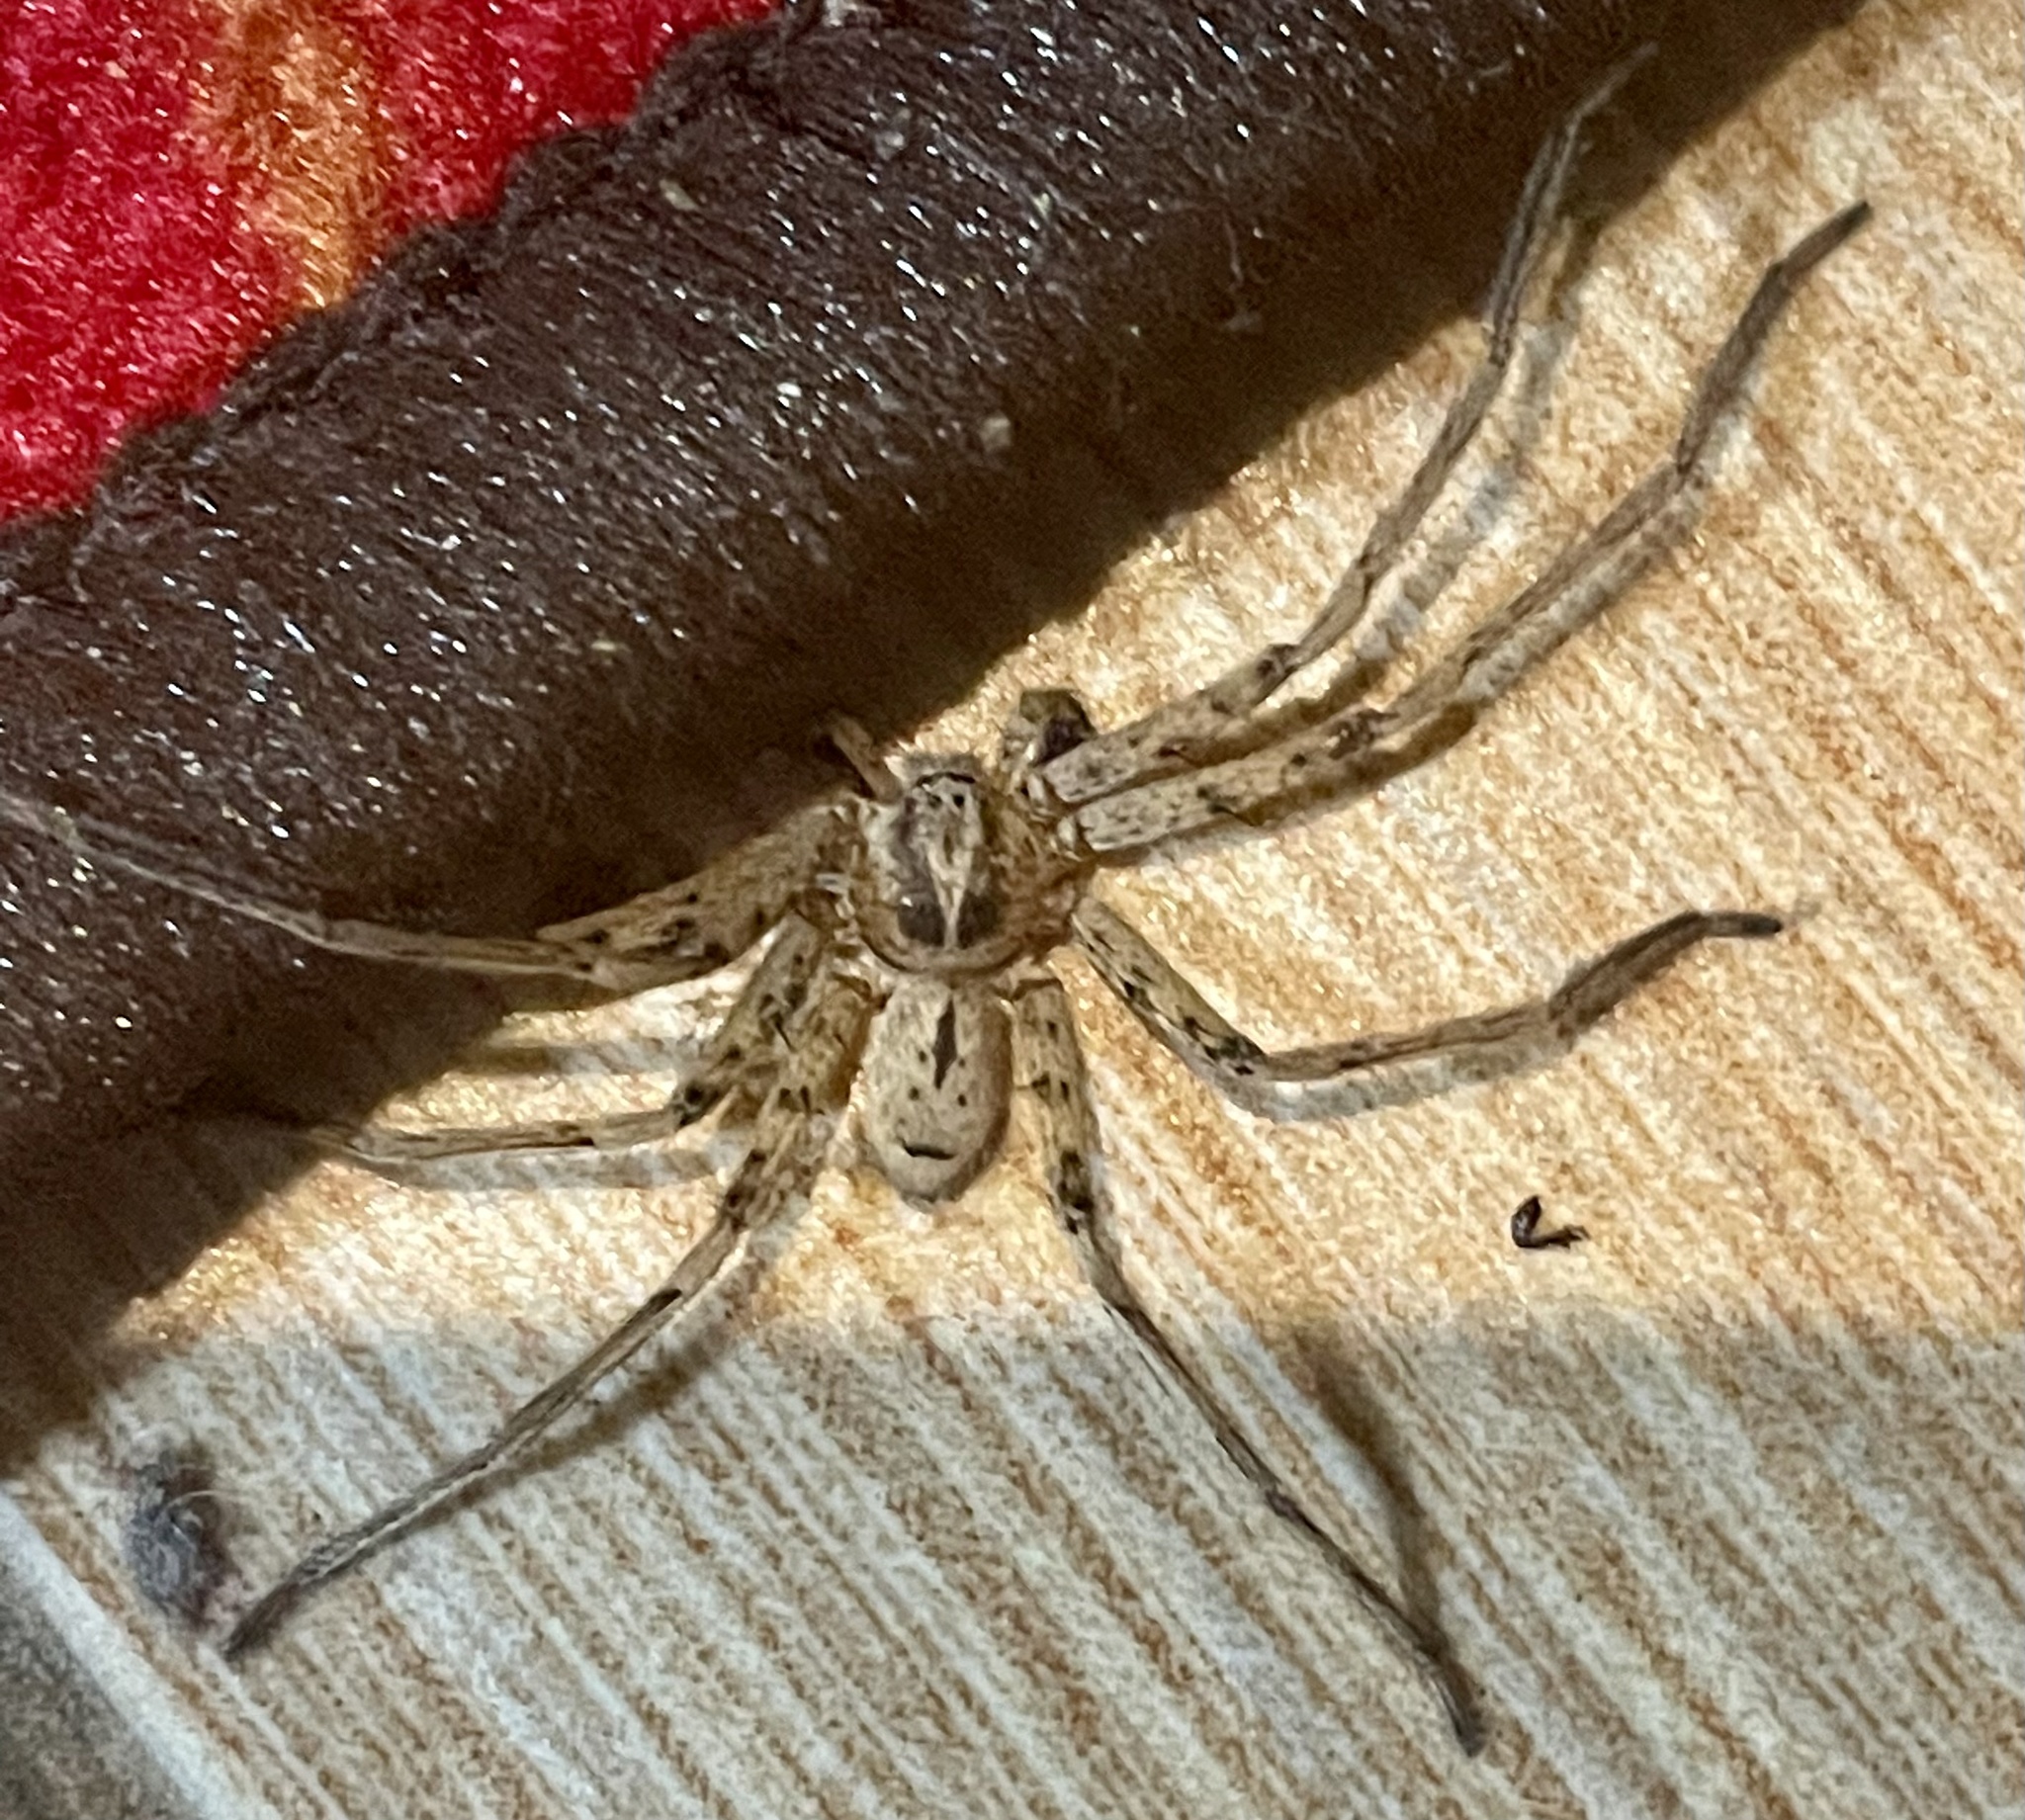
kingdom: Animalia
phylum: Arthropoda
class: Arachnida
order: Araneae
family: Sparassidae
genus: Heteropoda
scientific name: Heteropoda venatoria
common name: Huntsman spider
